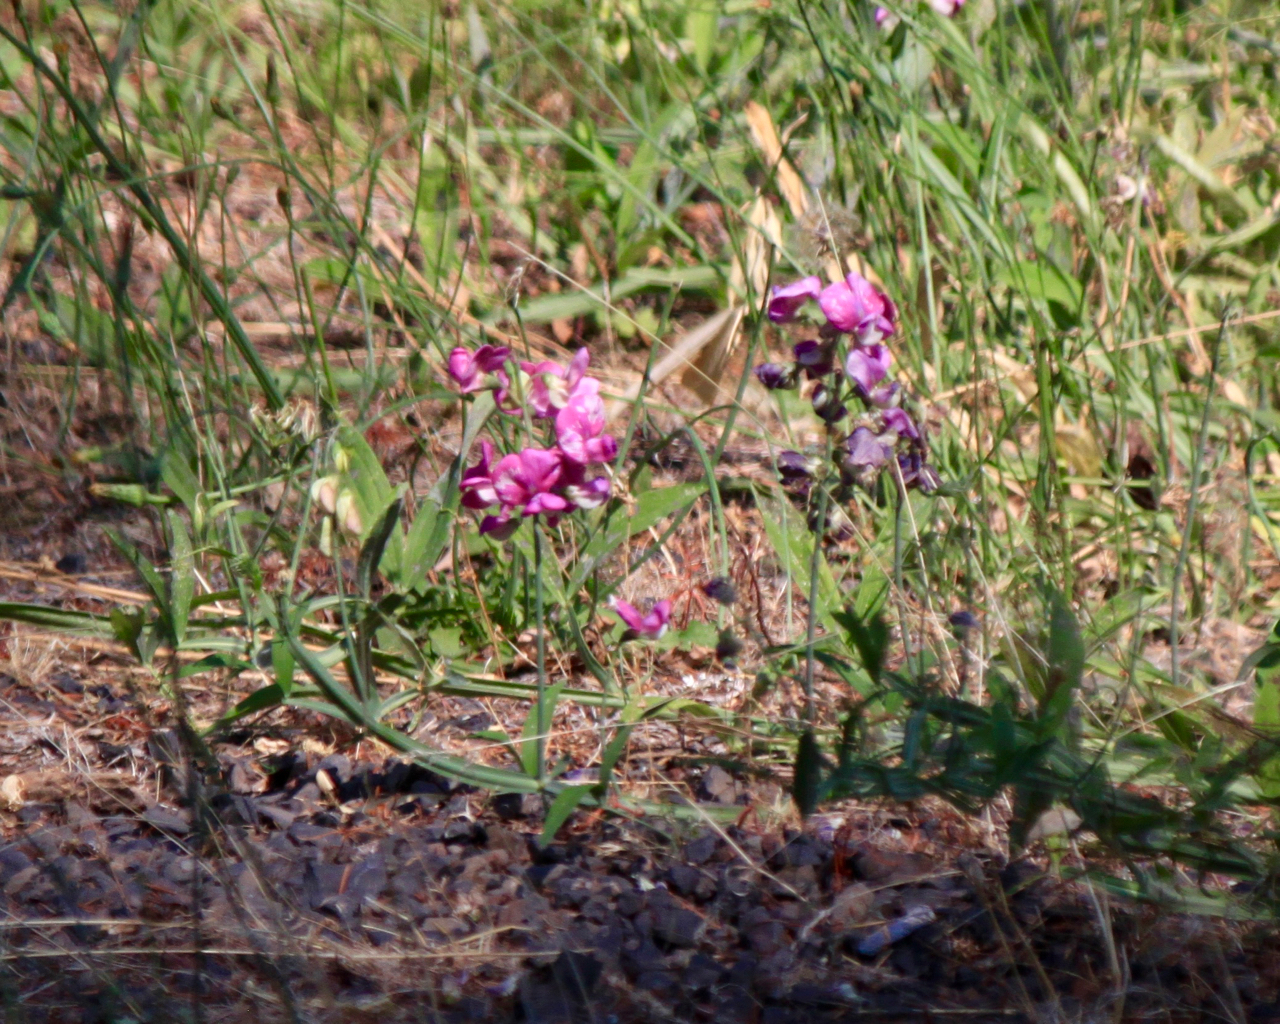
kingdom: Plantae
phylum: Tracheophyta
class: Magnoliopsida
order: Fabales
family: Fabaceae
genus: Lathyrus
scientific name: Lathyrus latifolius
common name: Perennial pea
